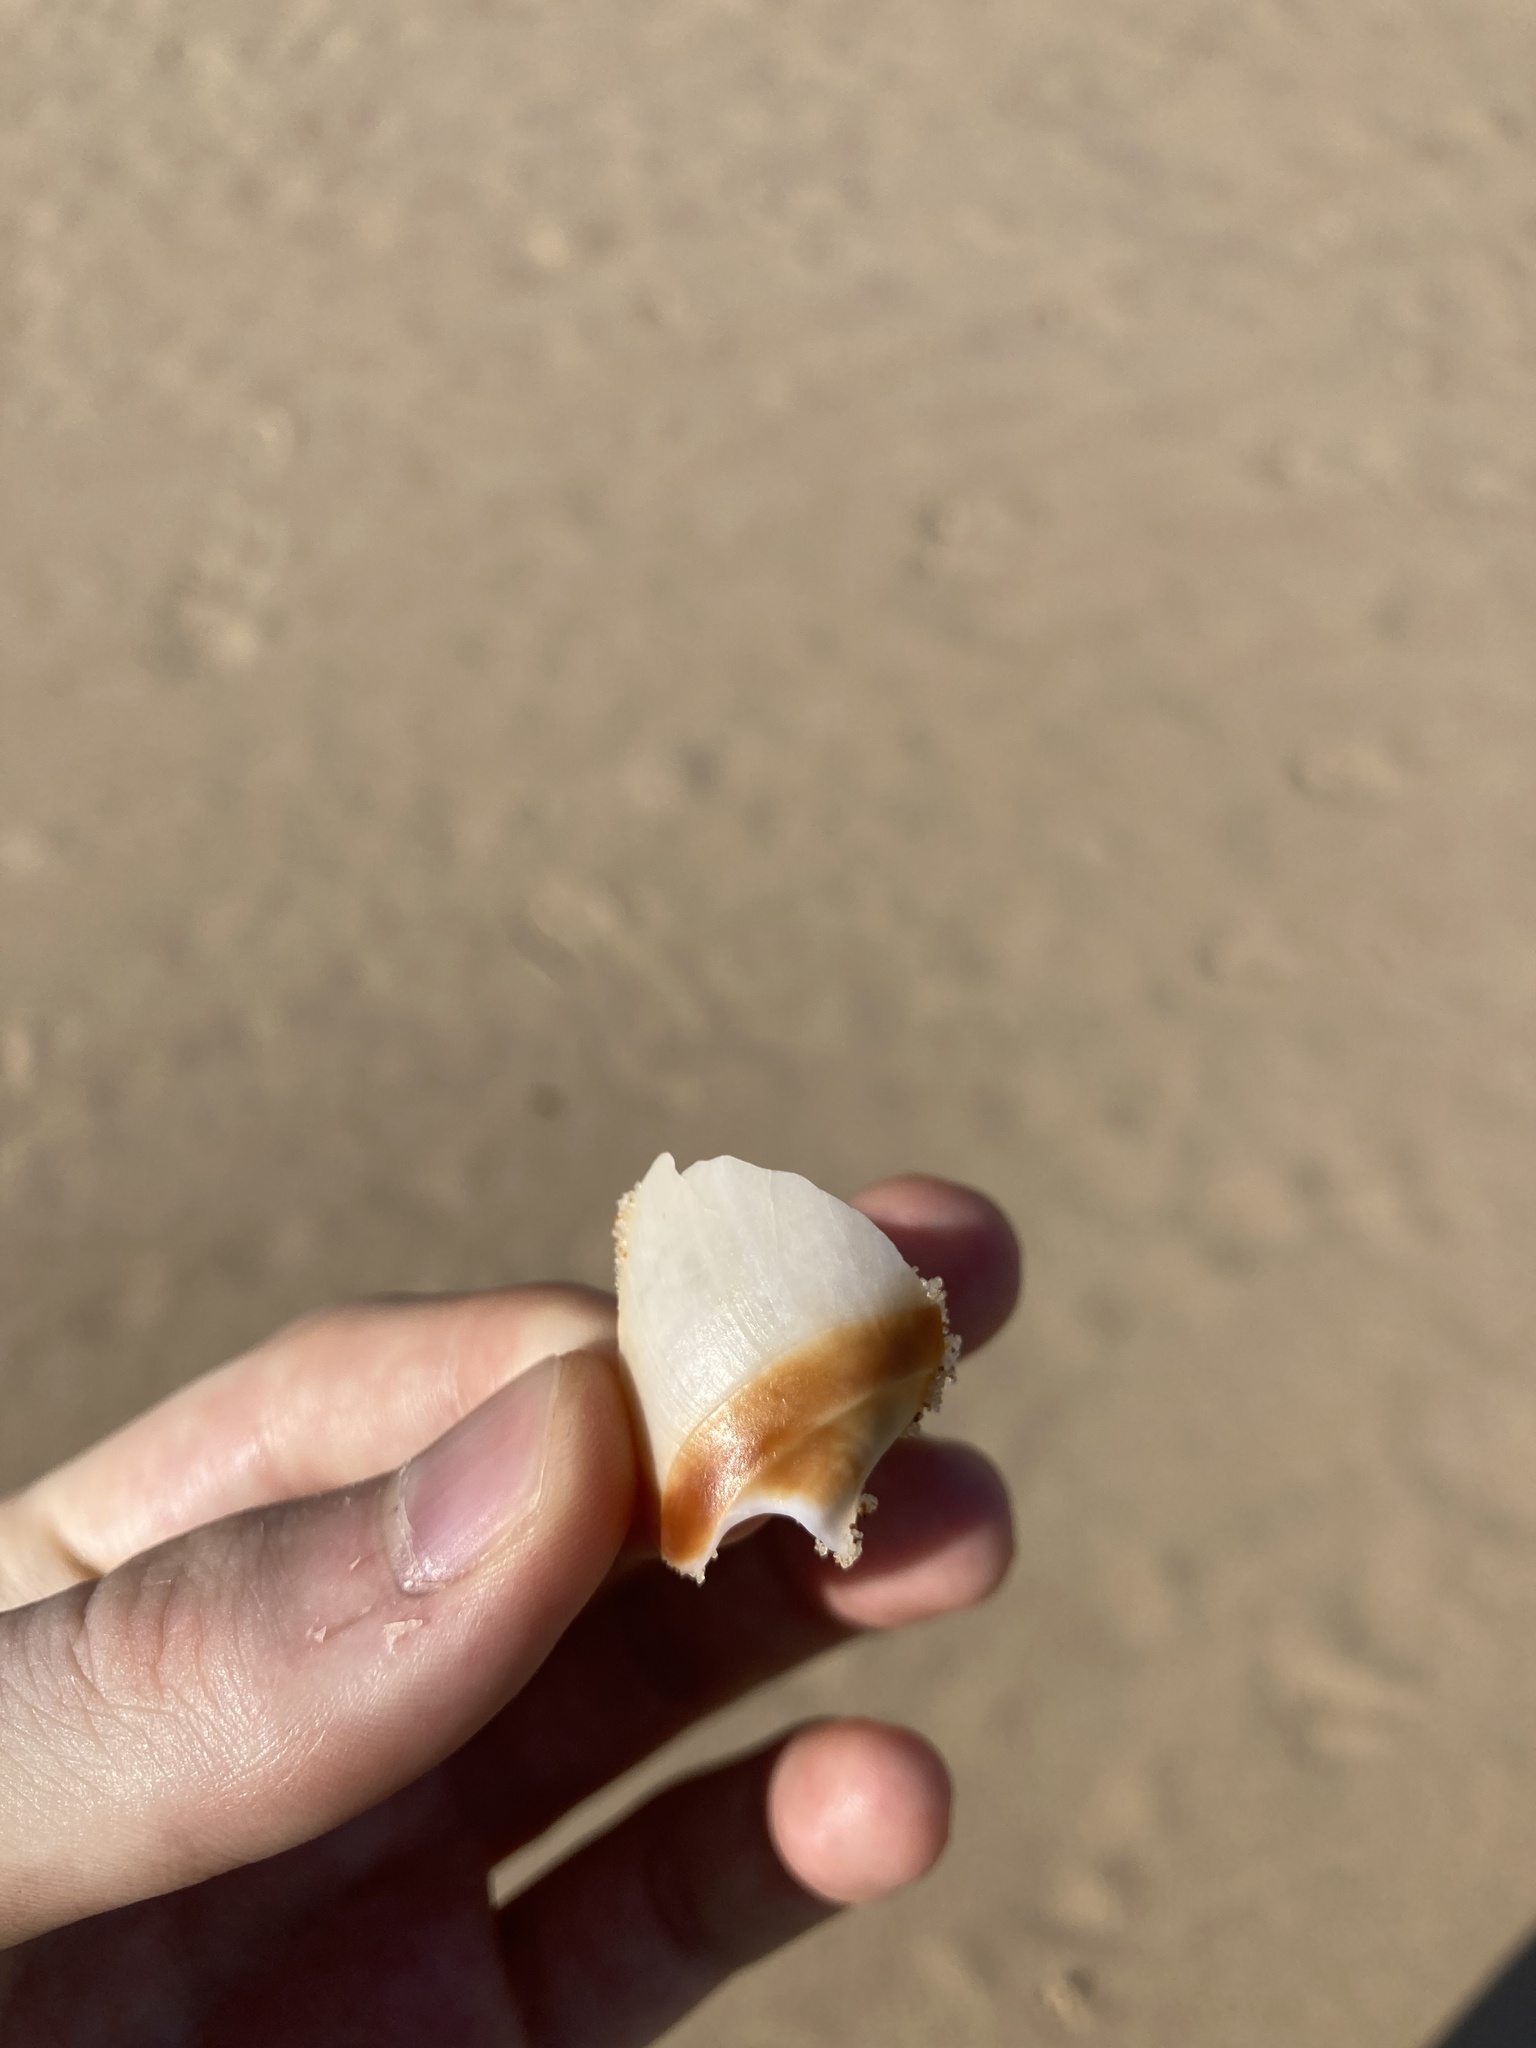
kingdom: Animalia
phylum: Mollusca
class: Gastropoda
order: Neogastropoda
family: Ancillariidae
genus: Ancillista
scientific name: Ancillista velesiana
